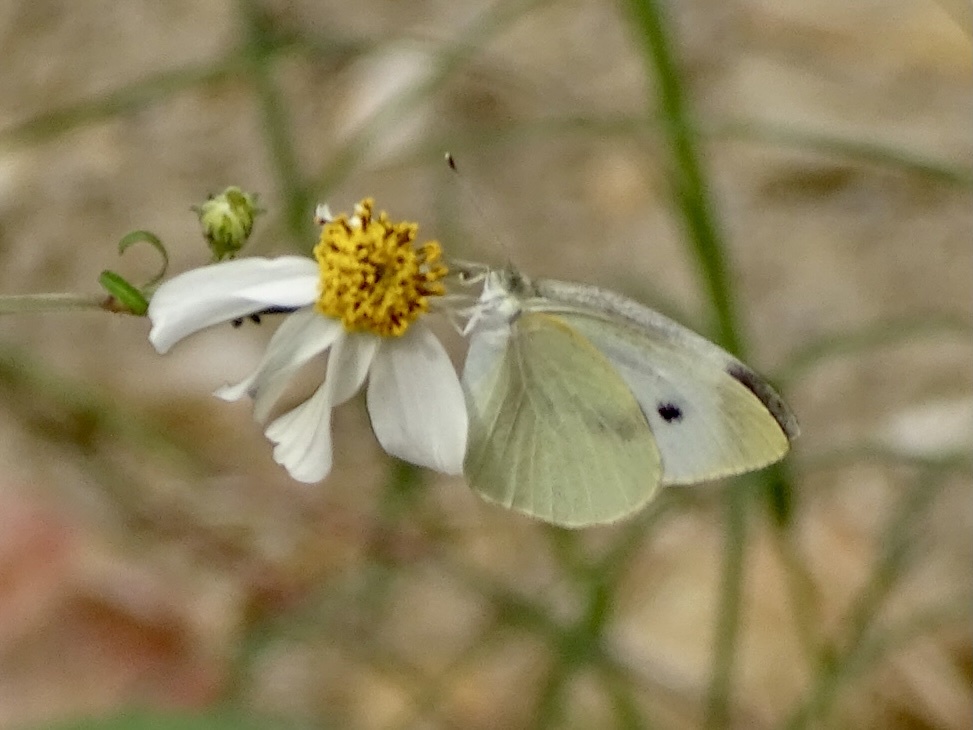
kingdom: Animalia
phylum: Arthropoda
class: Insecta
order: Lepidoptera
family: Pieridae
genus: Pieris
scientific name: Pieris rapae
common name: Small white
